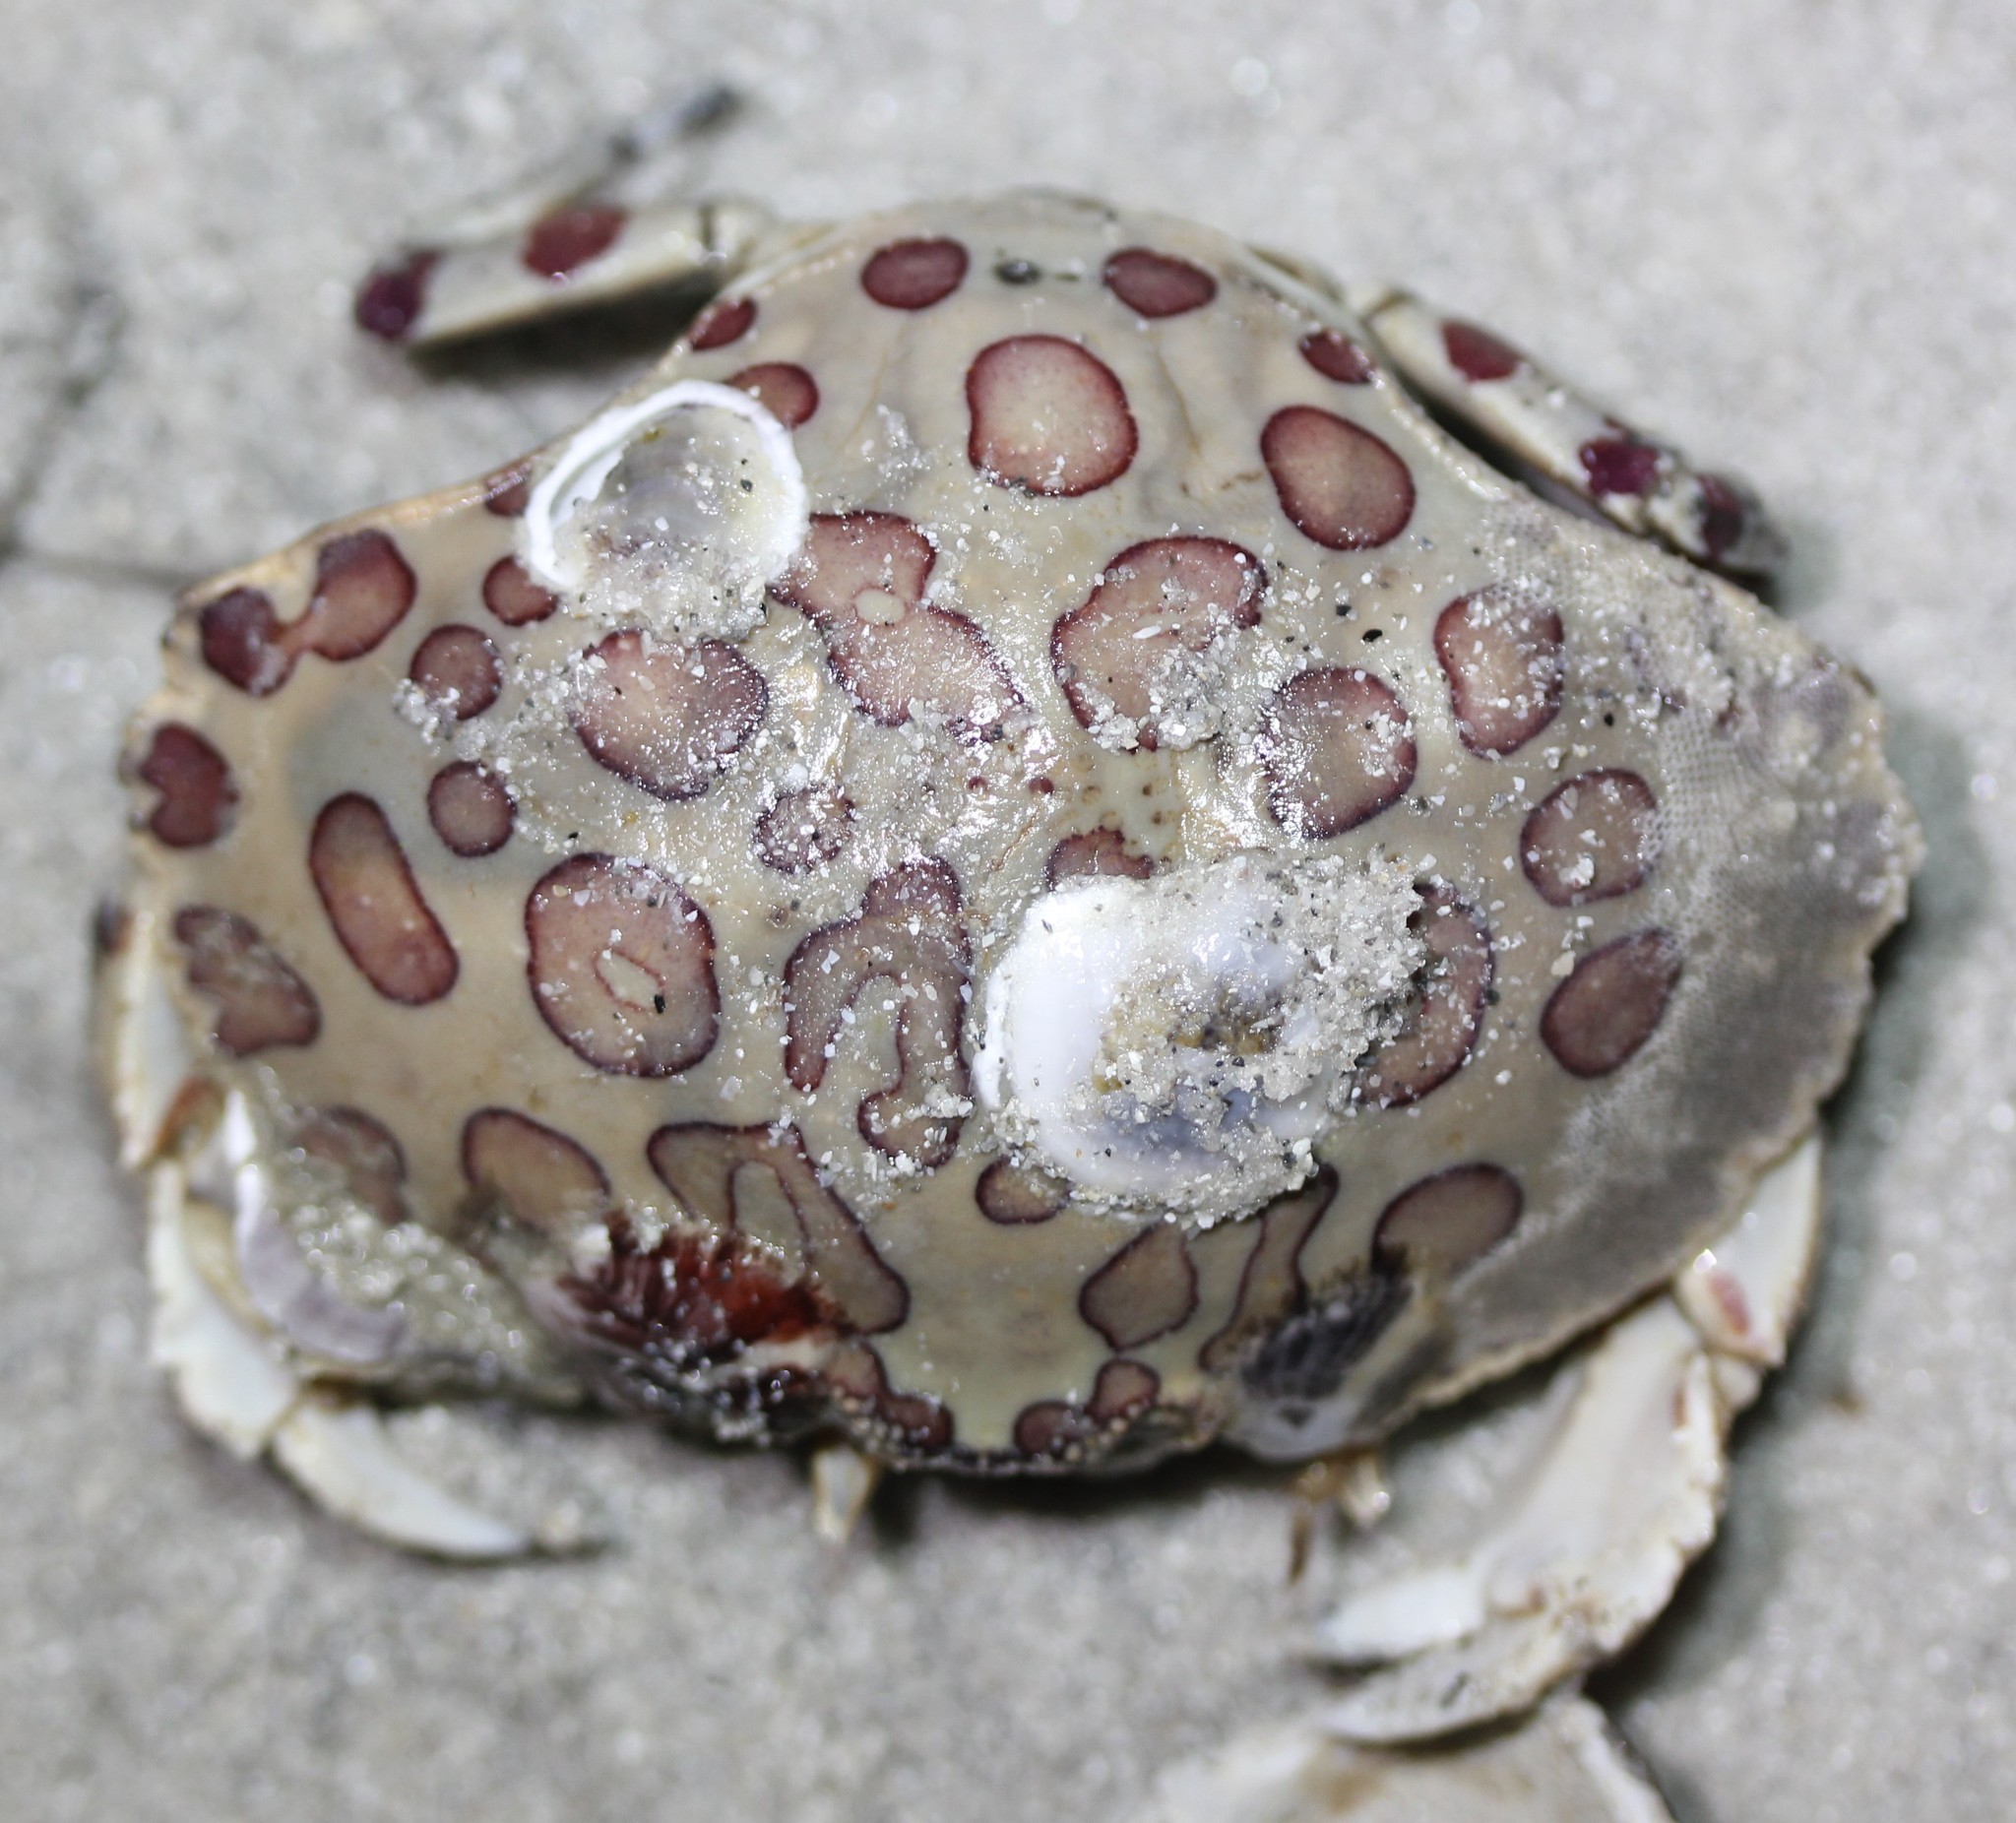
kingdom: Animalia
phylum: Arthropoda
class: Malacostraca
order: Decapoda
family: Aethridae
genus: Hepatus
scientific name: Hepatus epheliticus
